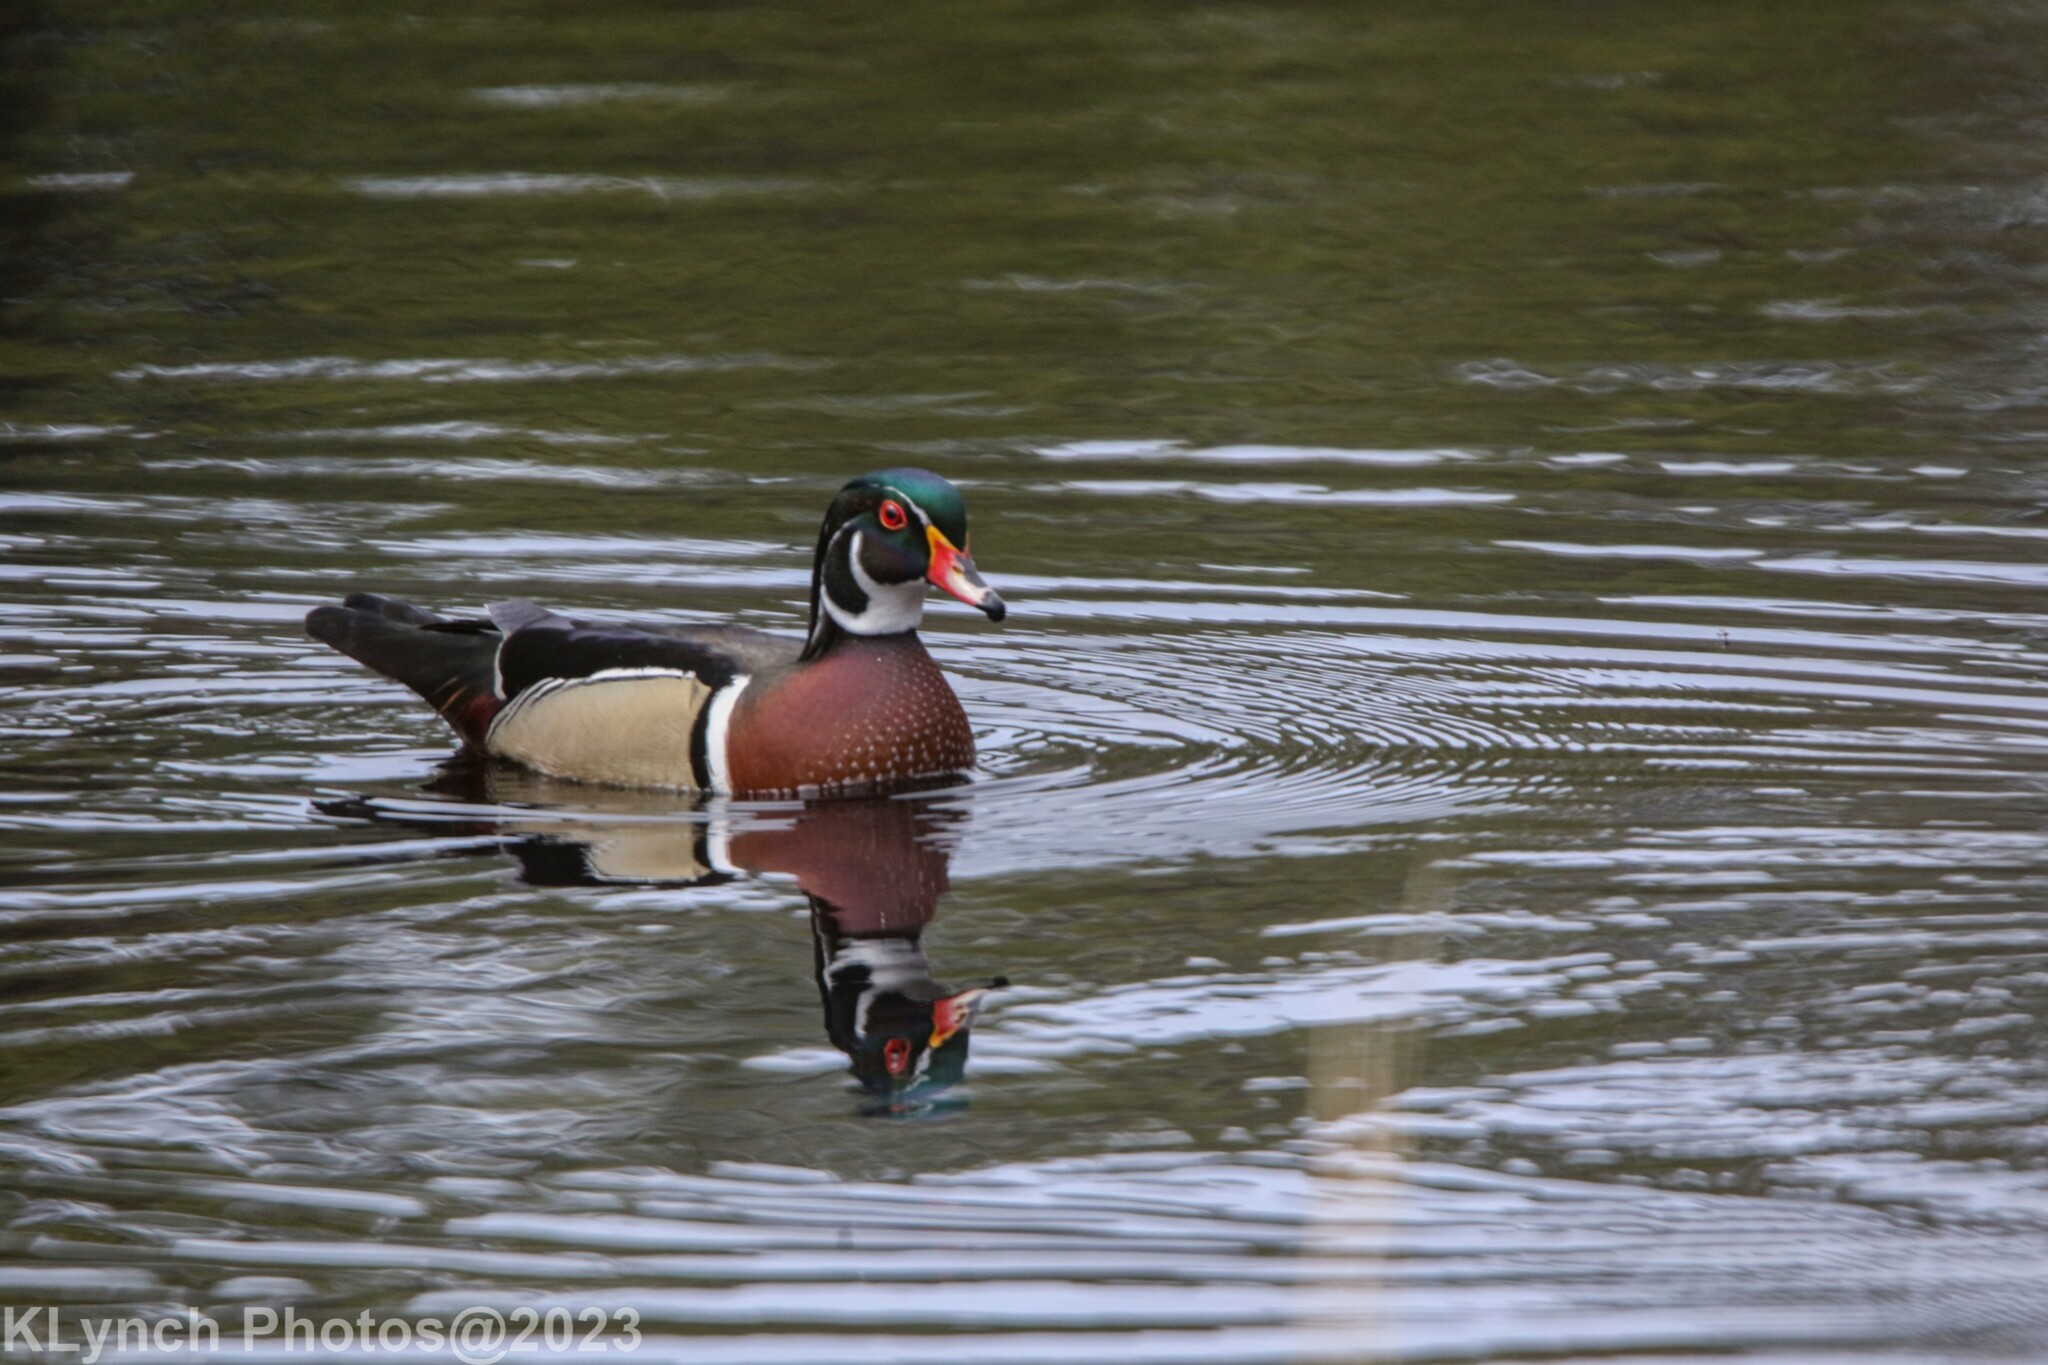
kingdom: Animalia
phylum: Chordata
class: Aves
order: Anseriformes
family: Anatidae
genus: Aix
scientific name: Aix sponsa
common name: Wood duck
